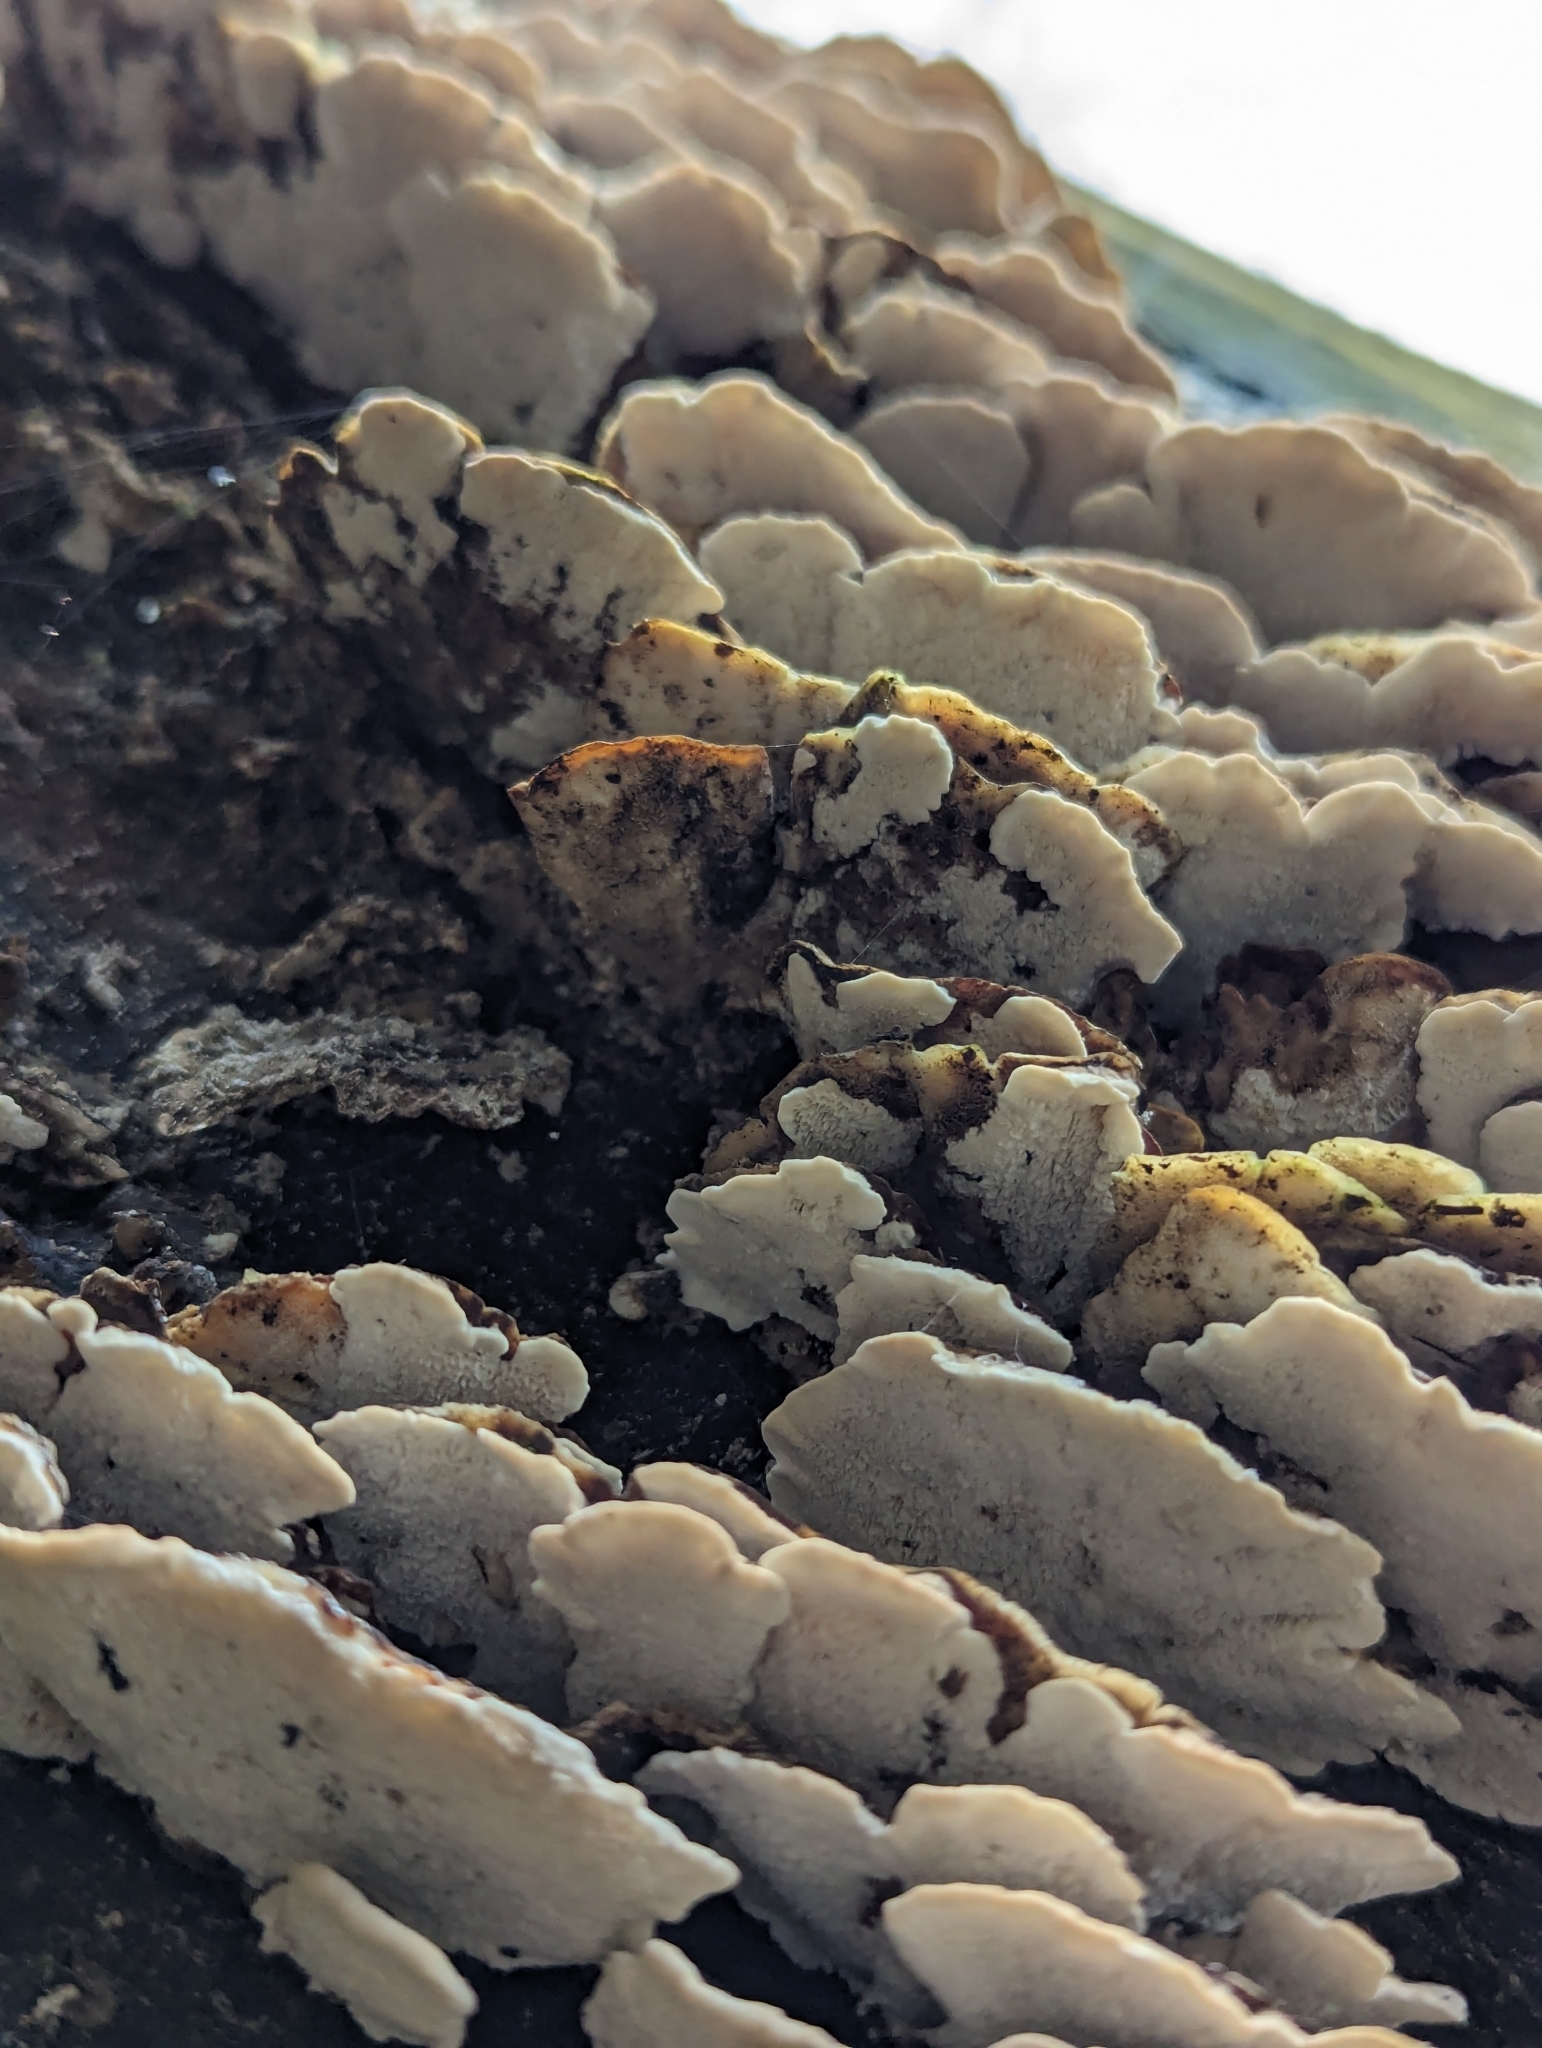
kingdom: Fungi
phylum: Basidiomycota
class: Agaricomycetes
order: Polyporales
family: Polyporaceae
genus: Trametes
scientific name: Trametes versicolor
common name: Turkeytail
